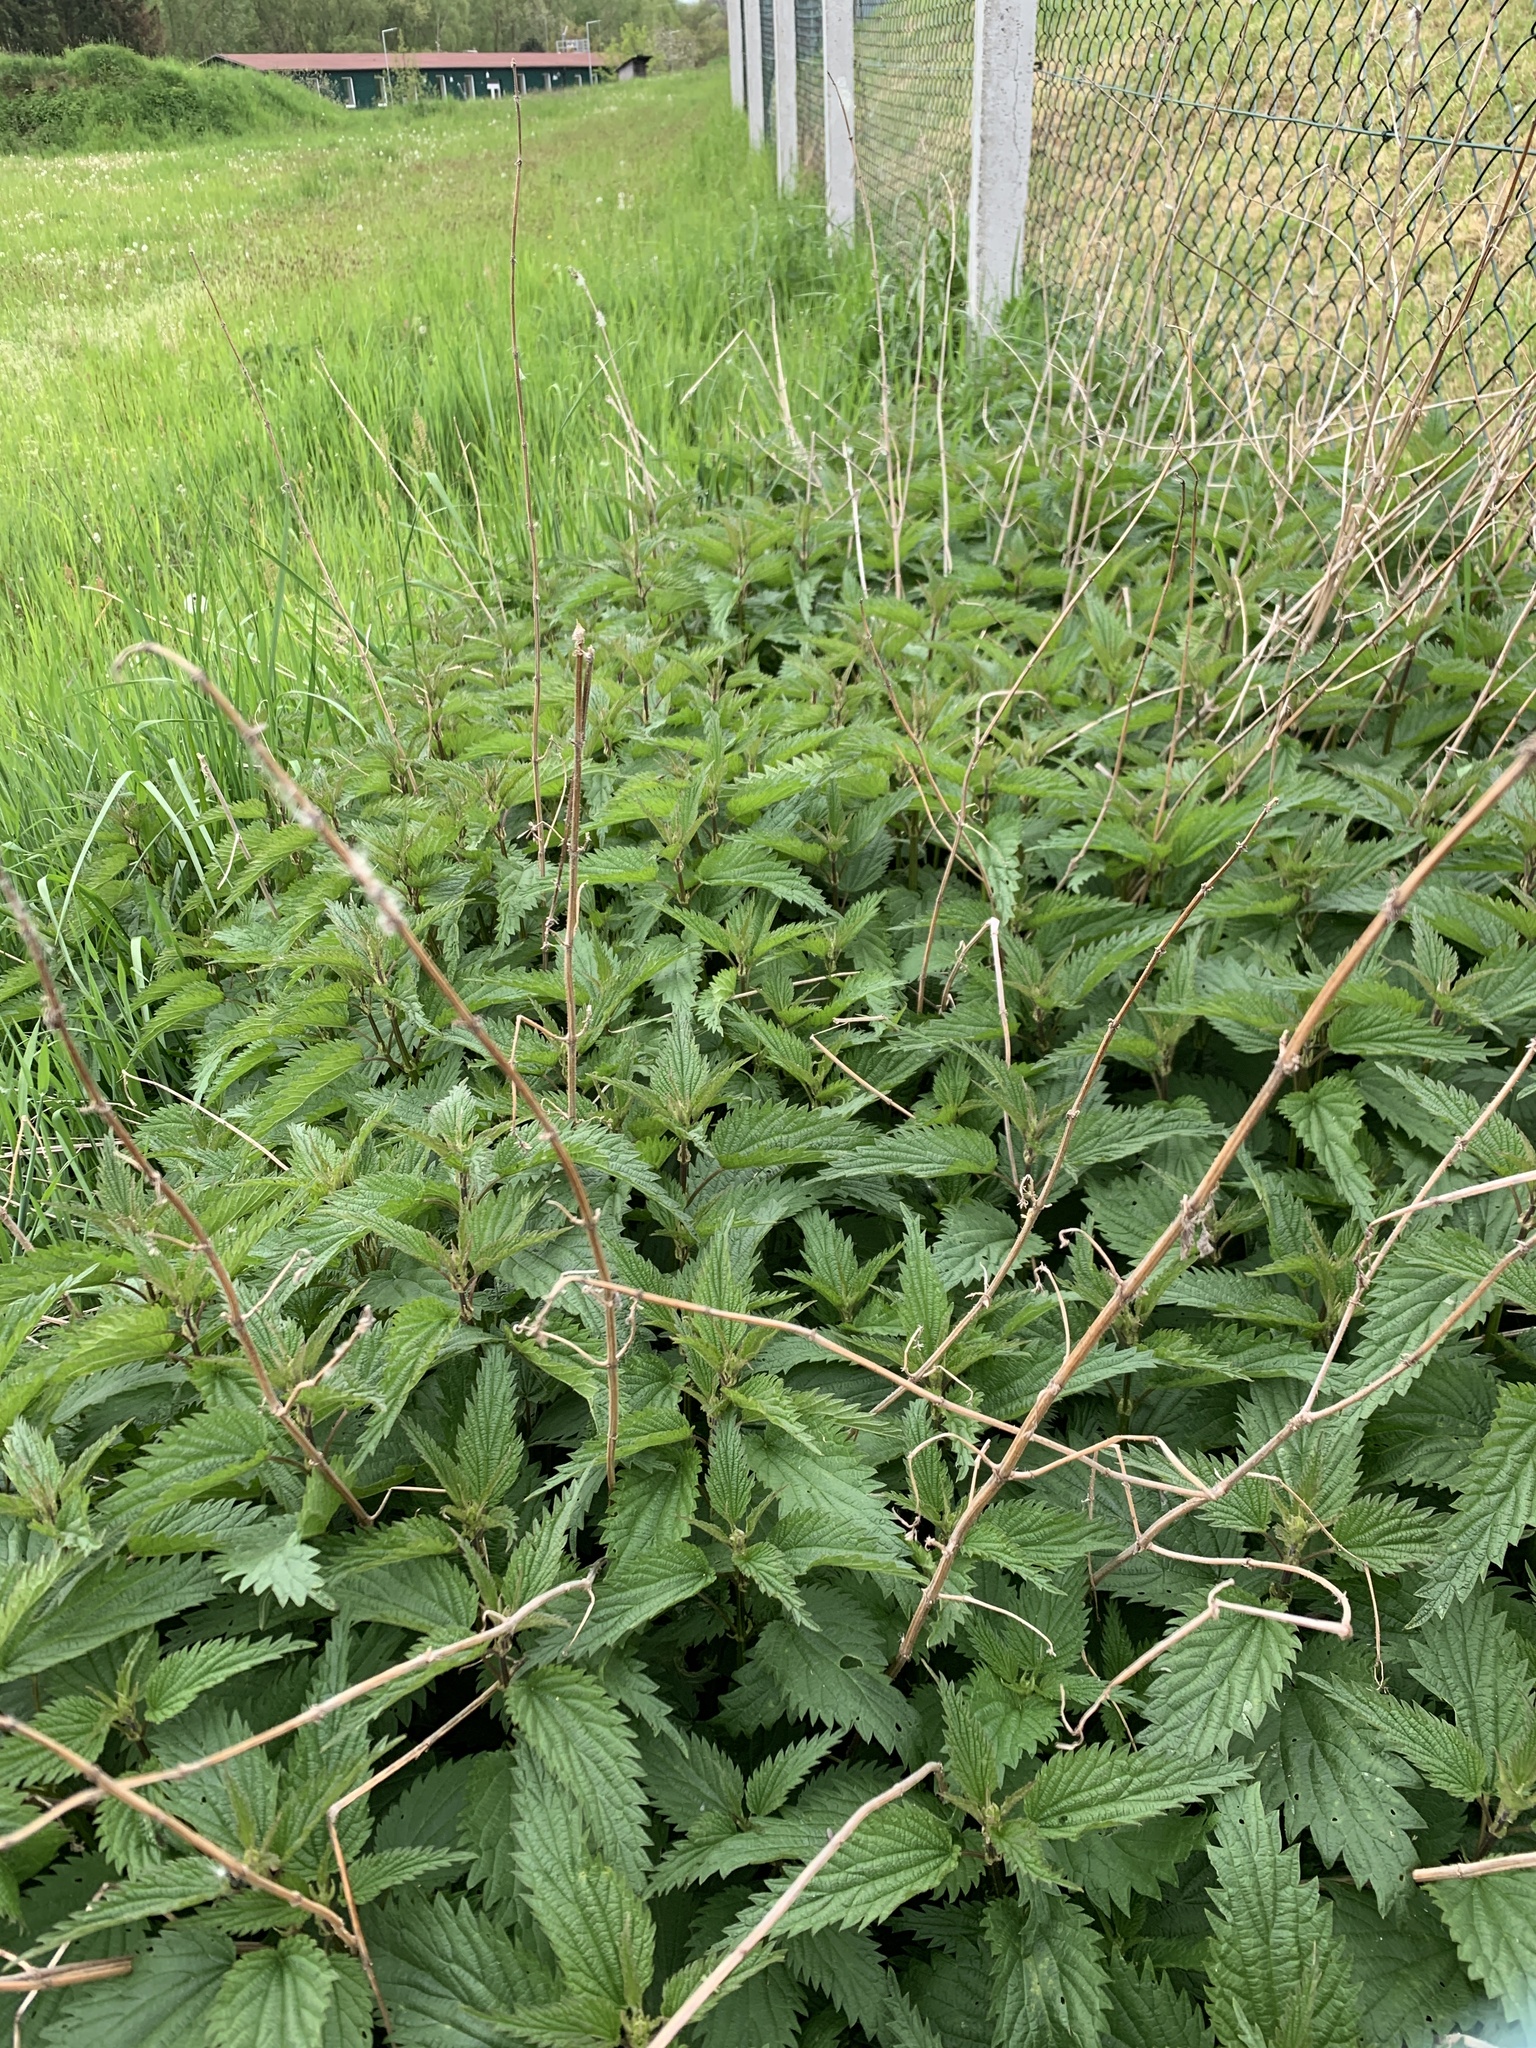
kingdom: Plantae
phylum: Tracheophyta
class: Magnoliopsida
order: Rosales
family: Urticaceae
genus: Urtica
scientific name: Urtica dioica
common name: Common nettle
